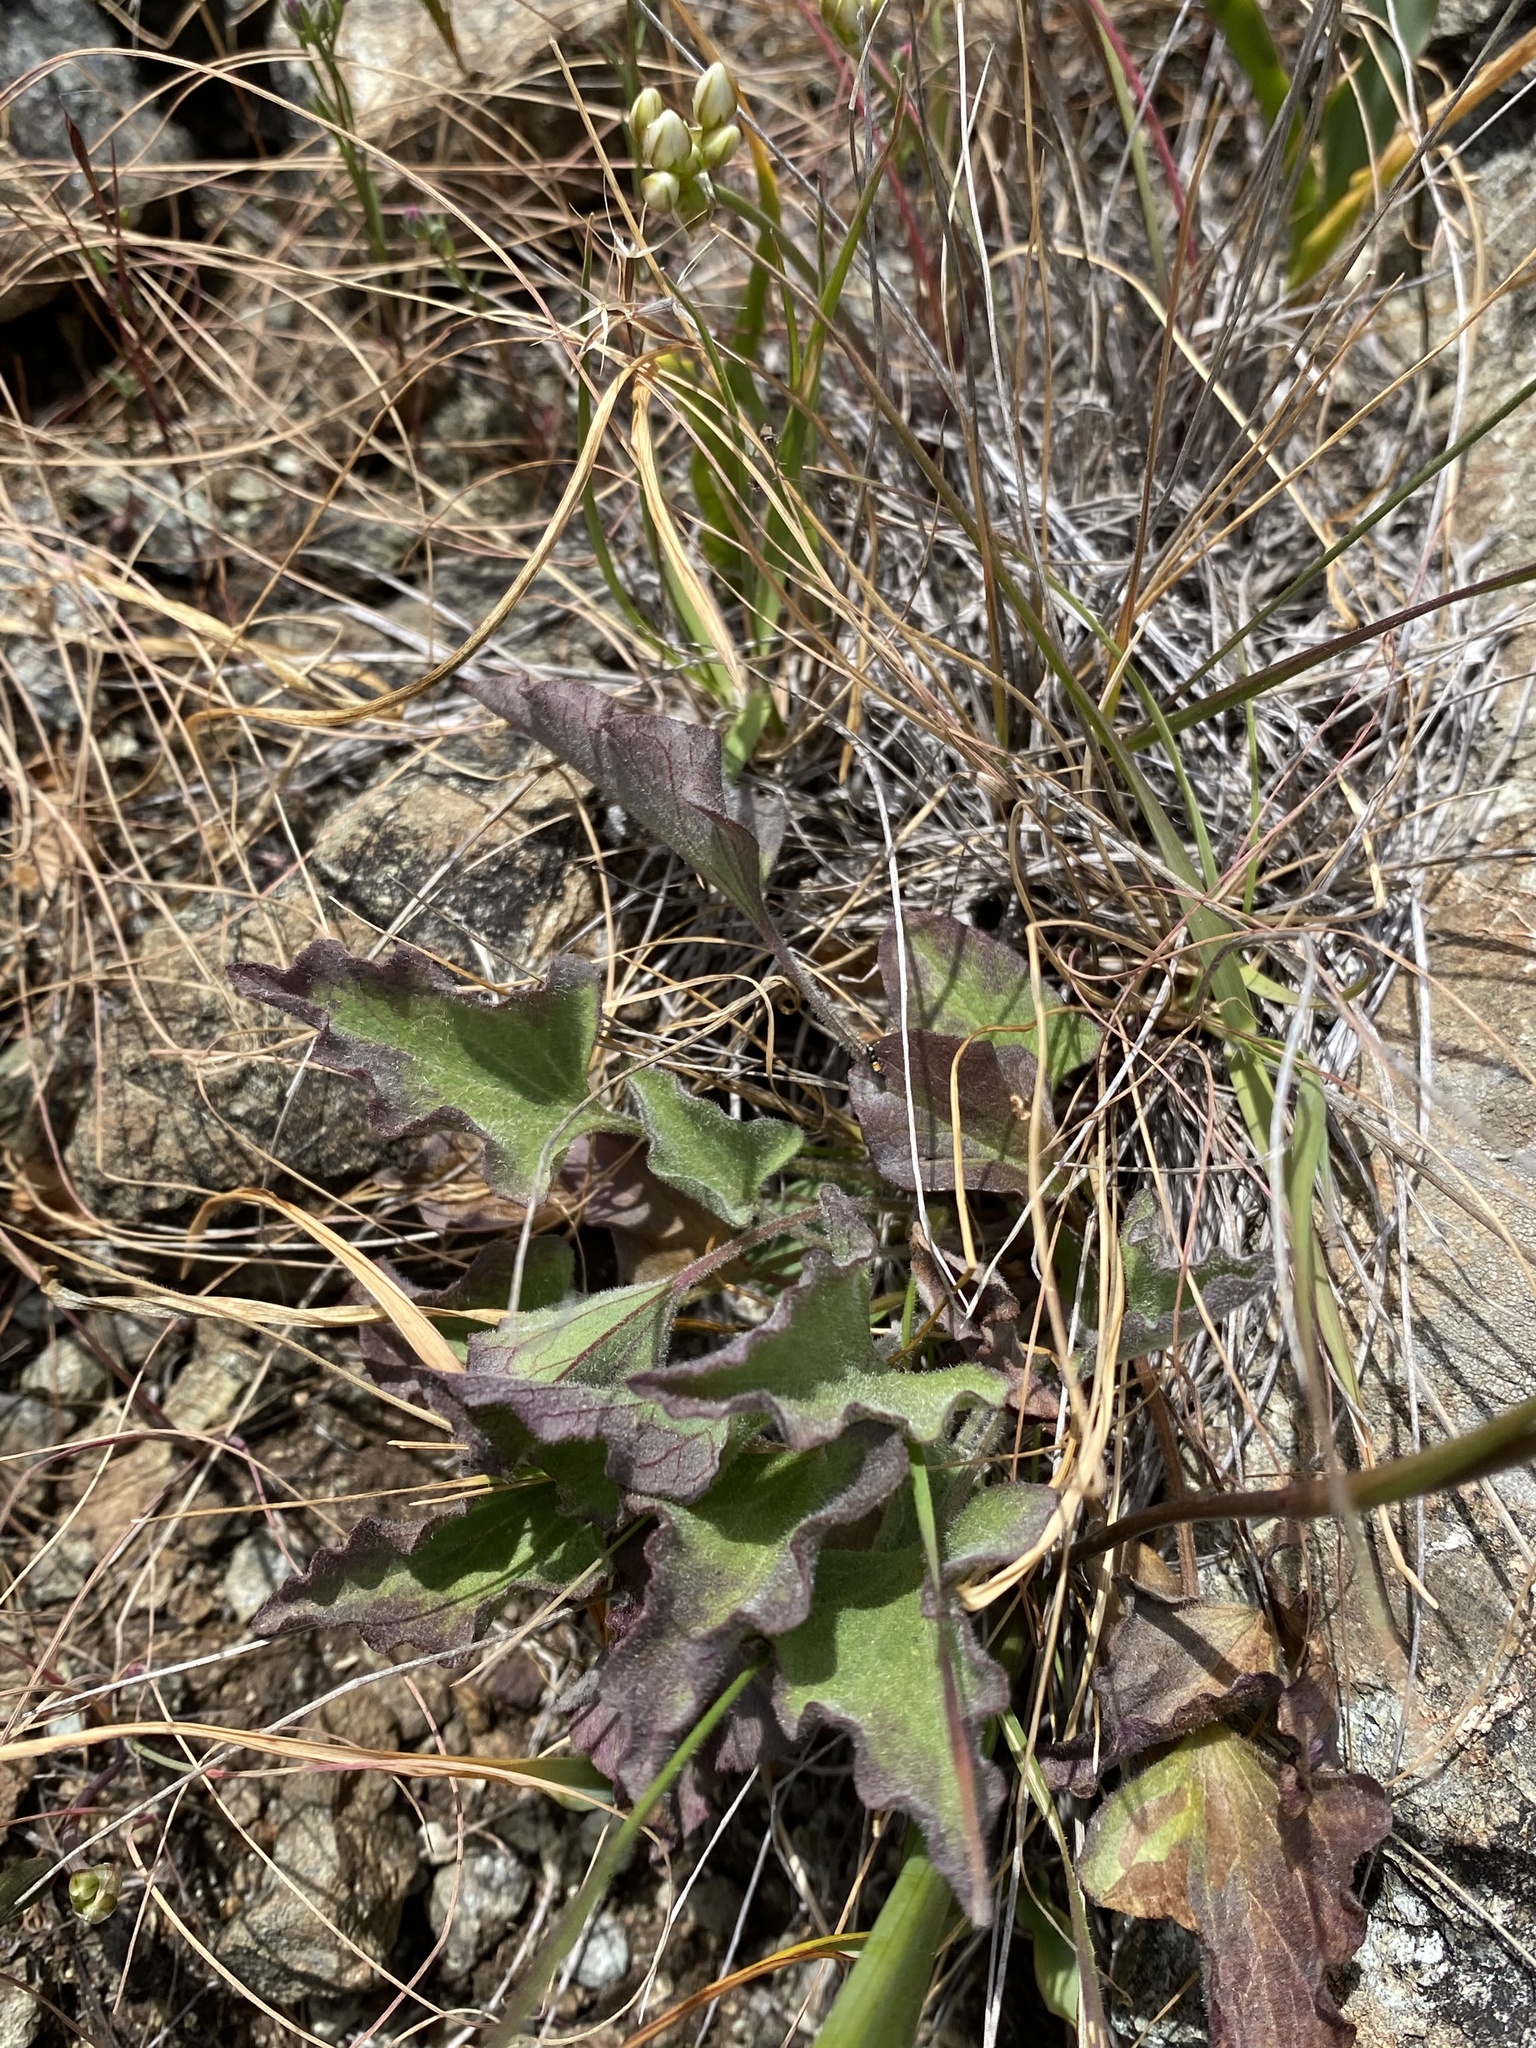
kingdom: Plantae
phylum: Tracheophyta
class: Magnoliopsida
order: Solanales
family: Convolvulaceae
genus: Calystegia
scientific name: Calystegia collina
